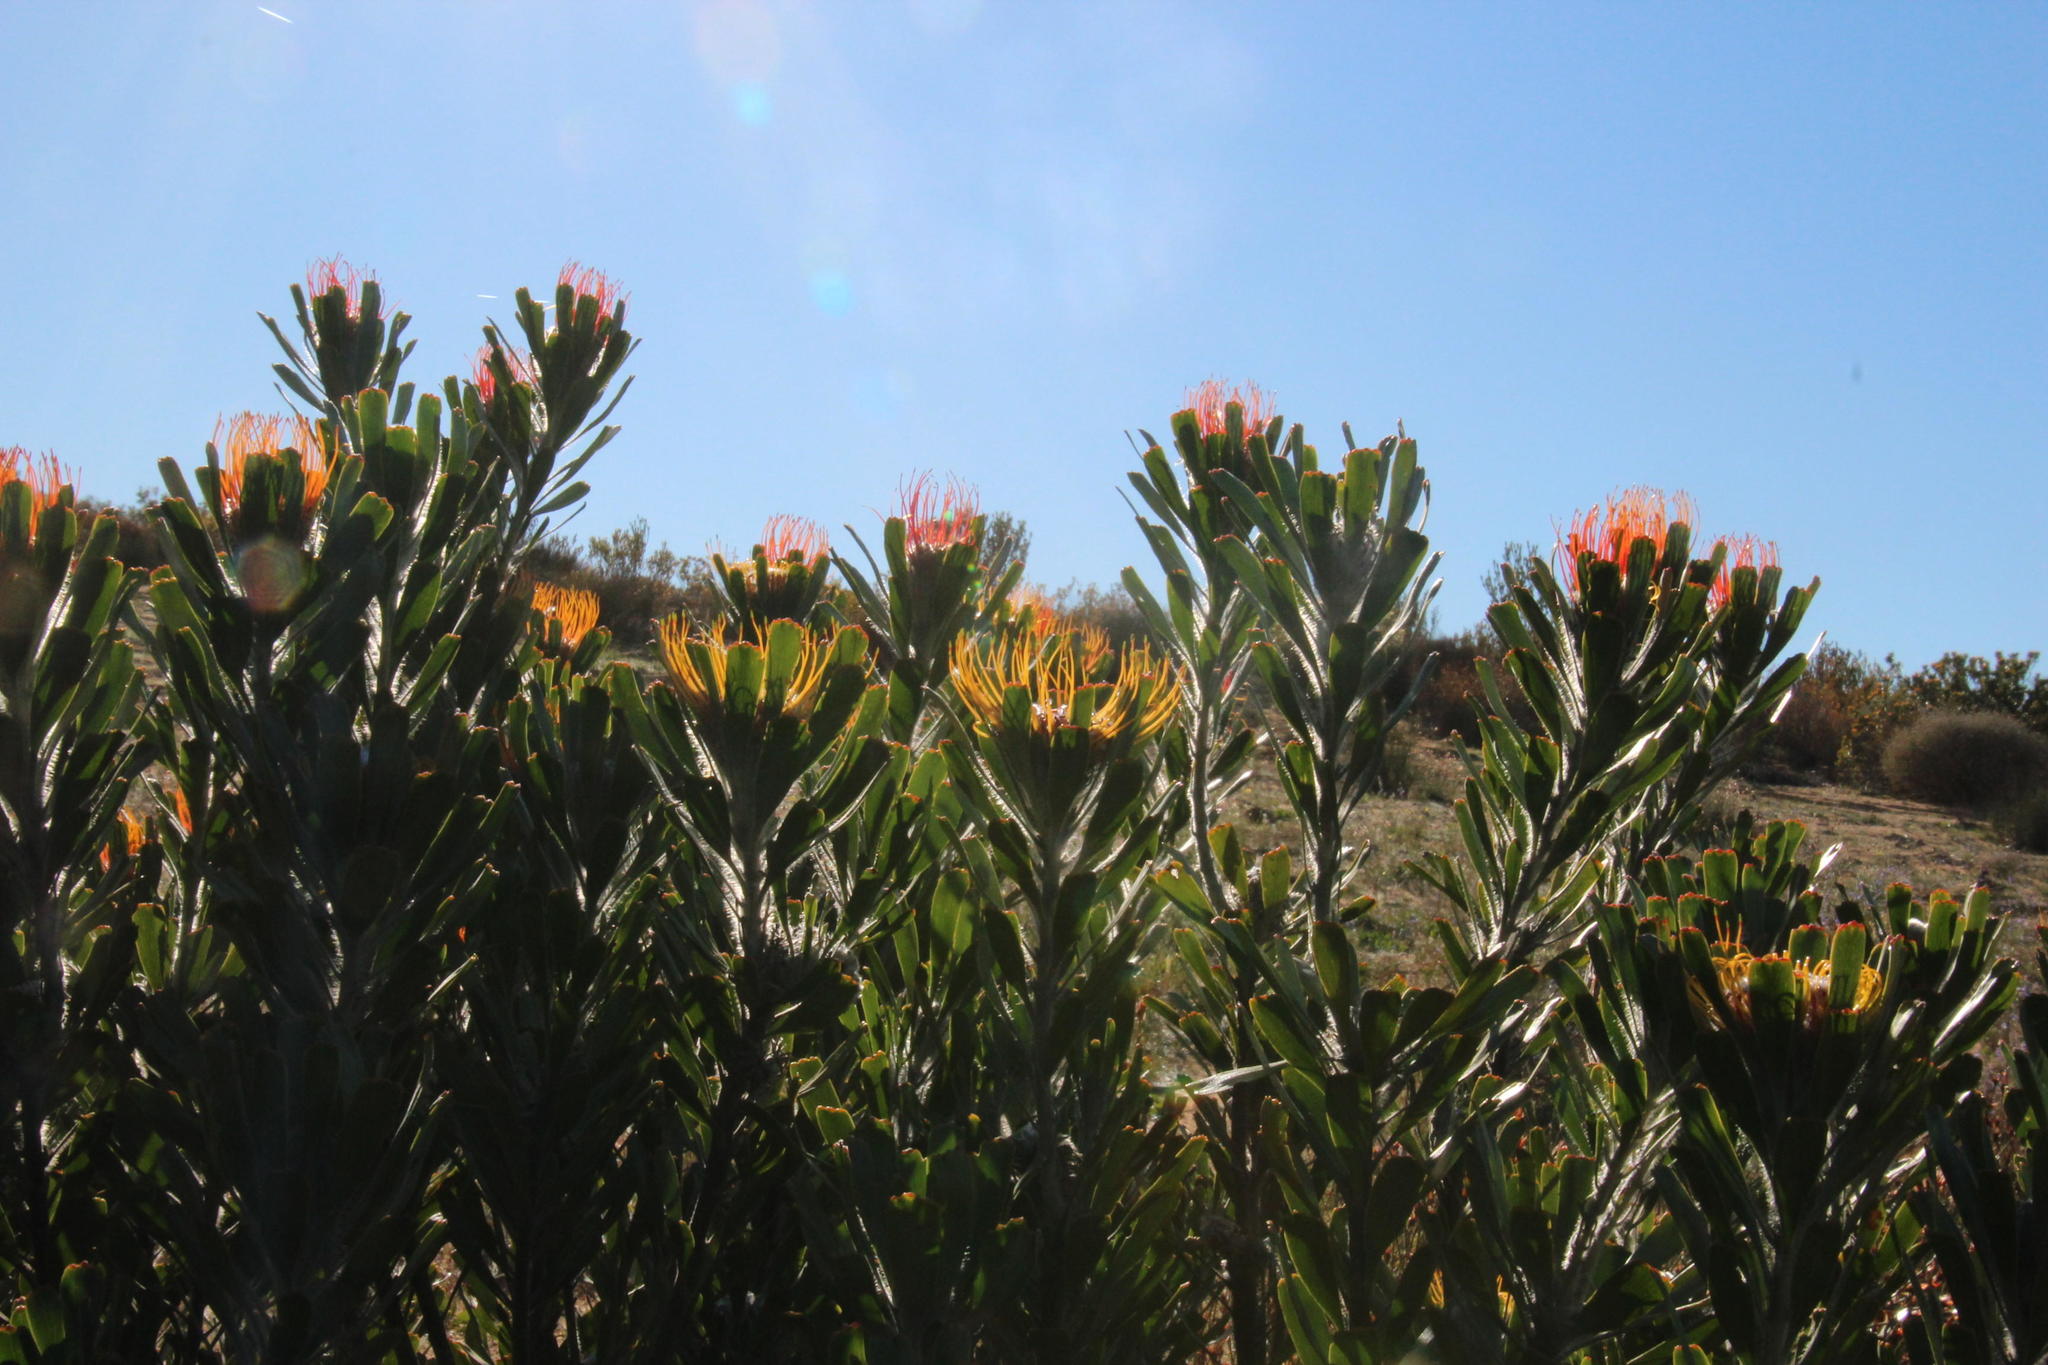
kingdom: Plantae
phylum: Tracheophyta
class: Magnoliopsida
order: Proteales
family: Proteaceae
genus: Leucospermum
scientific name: Leucospermum praemorsum
